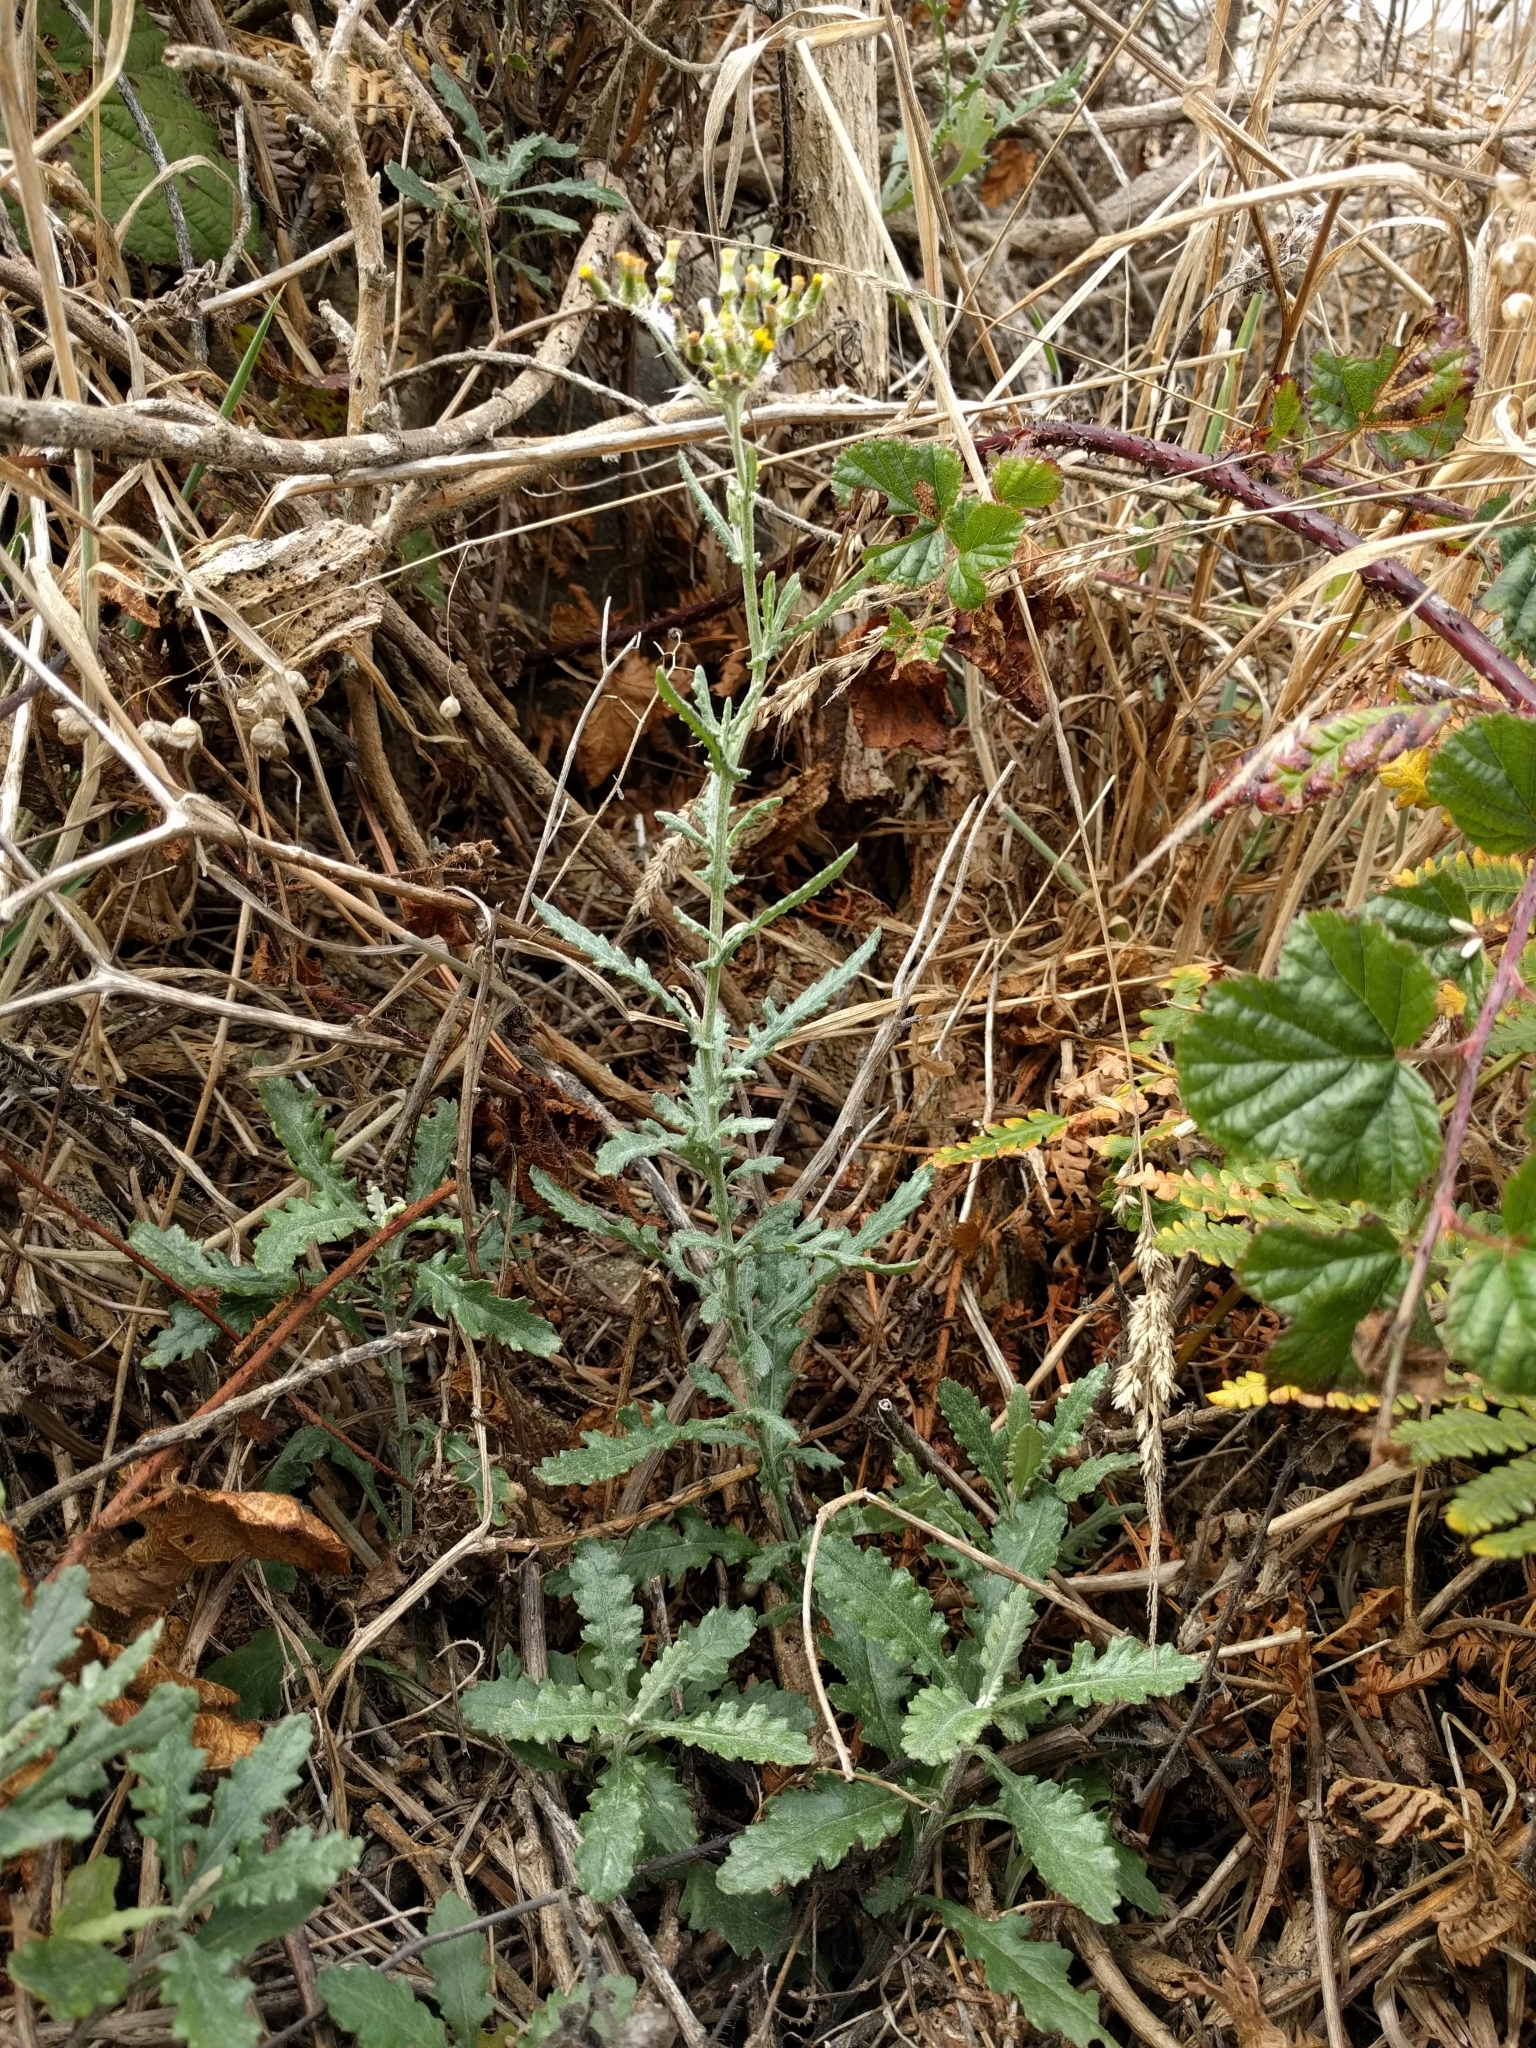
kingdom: Plantae
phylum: Tracheophyta
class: Magnoliopsida
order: Asterales
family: Asteraceae
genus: Senecio
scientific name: Senecio glomeratus
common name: Cutleaf burnweed
